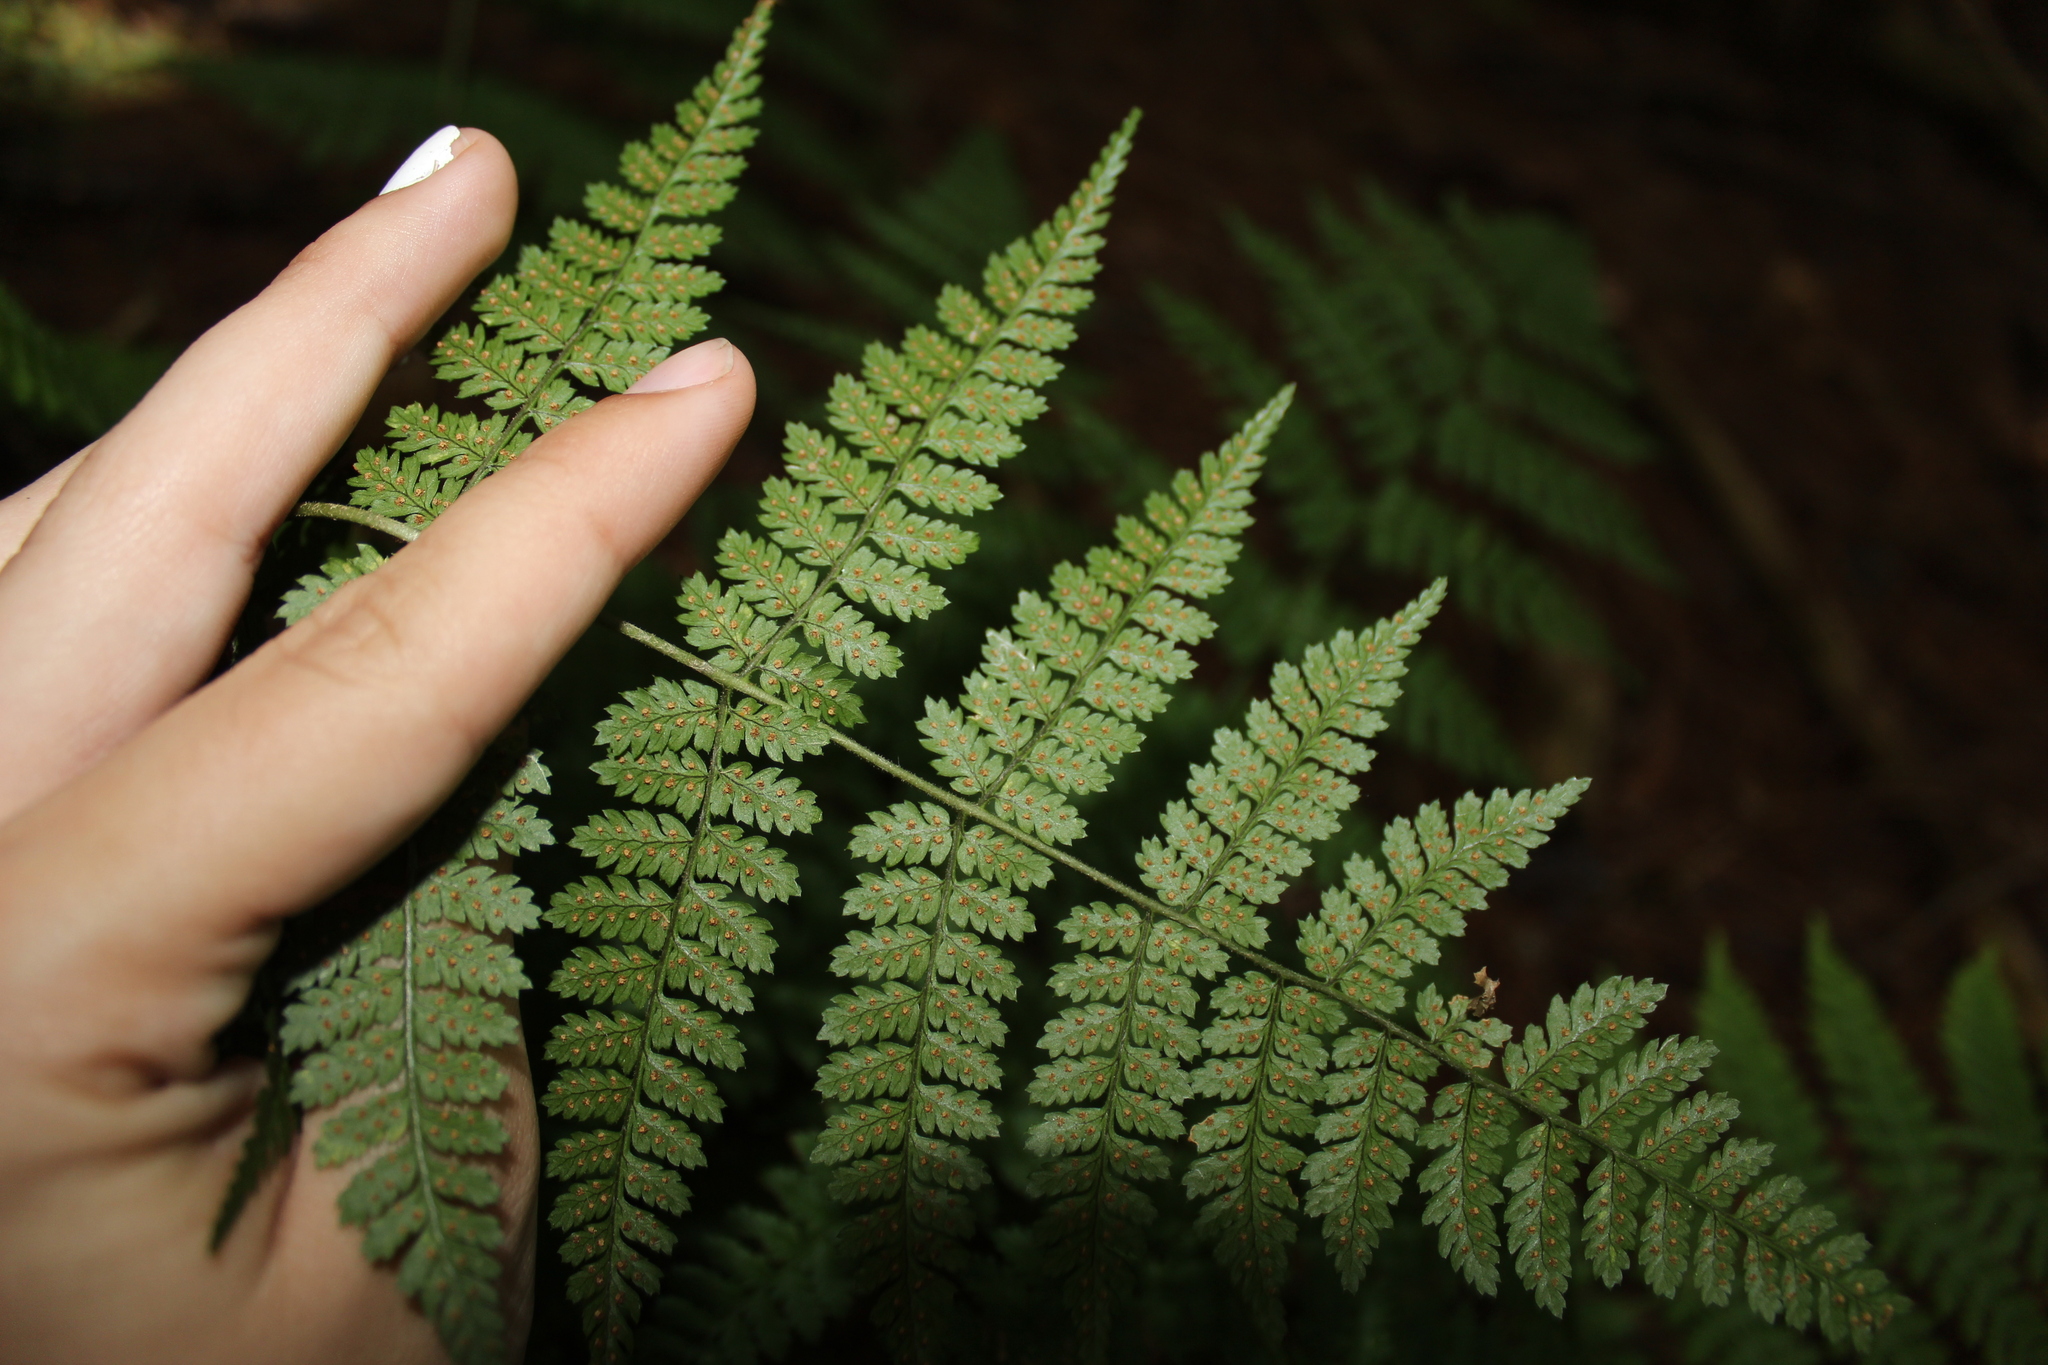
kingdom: Plantae
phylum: Tracheophyta
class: Polypodiopsida
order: Polypodiales
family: Dryopteridaceae
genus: Dryopteris
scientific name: Dryopteris intermedia
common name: Evergreen wood fern
